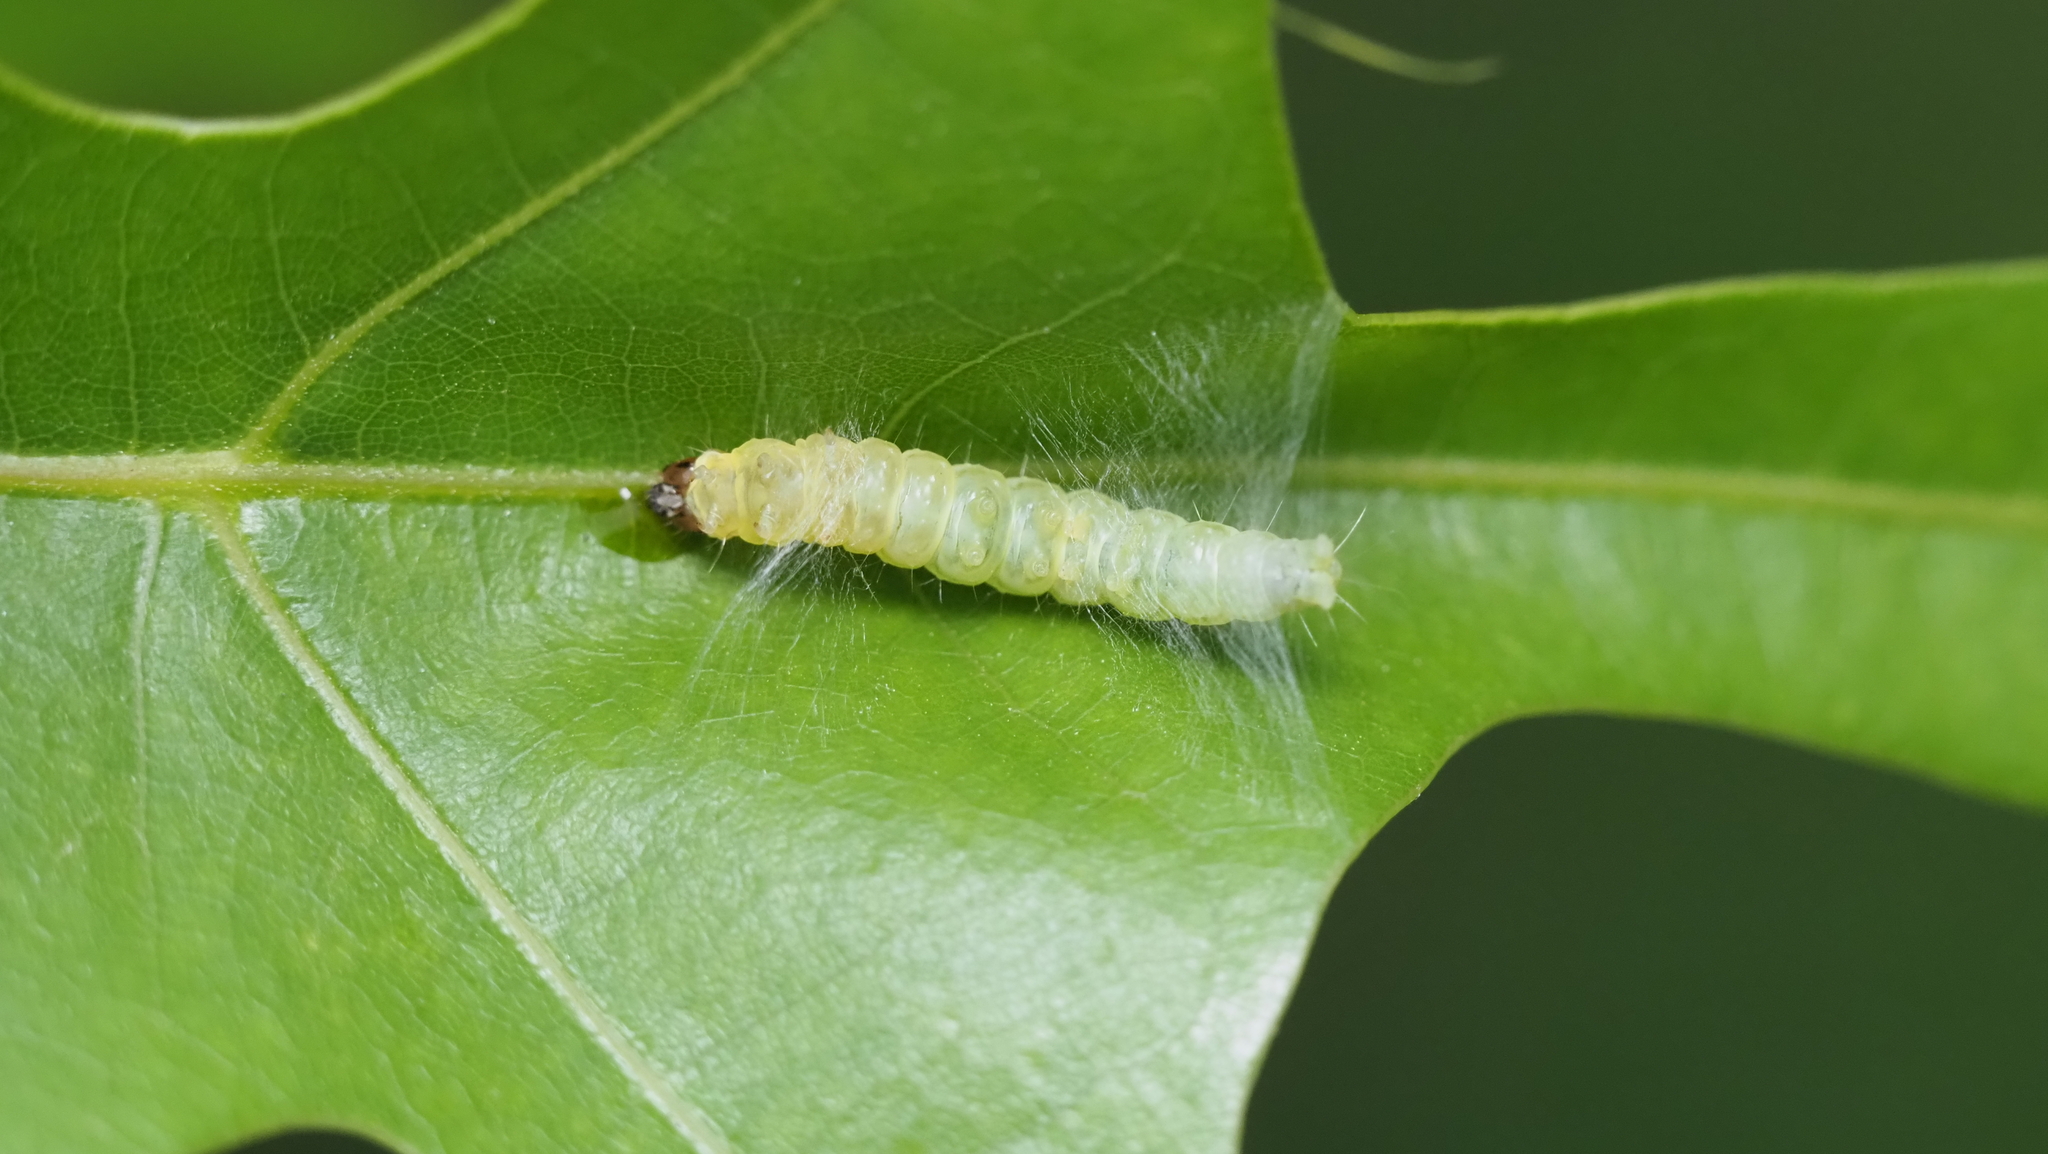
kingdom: Animalia
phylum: Arthropoda
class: Insecta
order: Lepidoptera
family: Tortricidae
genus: Archips
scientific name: Archips semiferanus
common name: Oak leafroller
